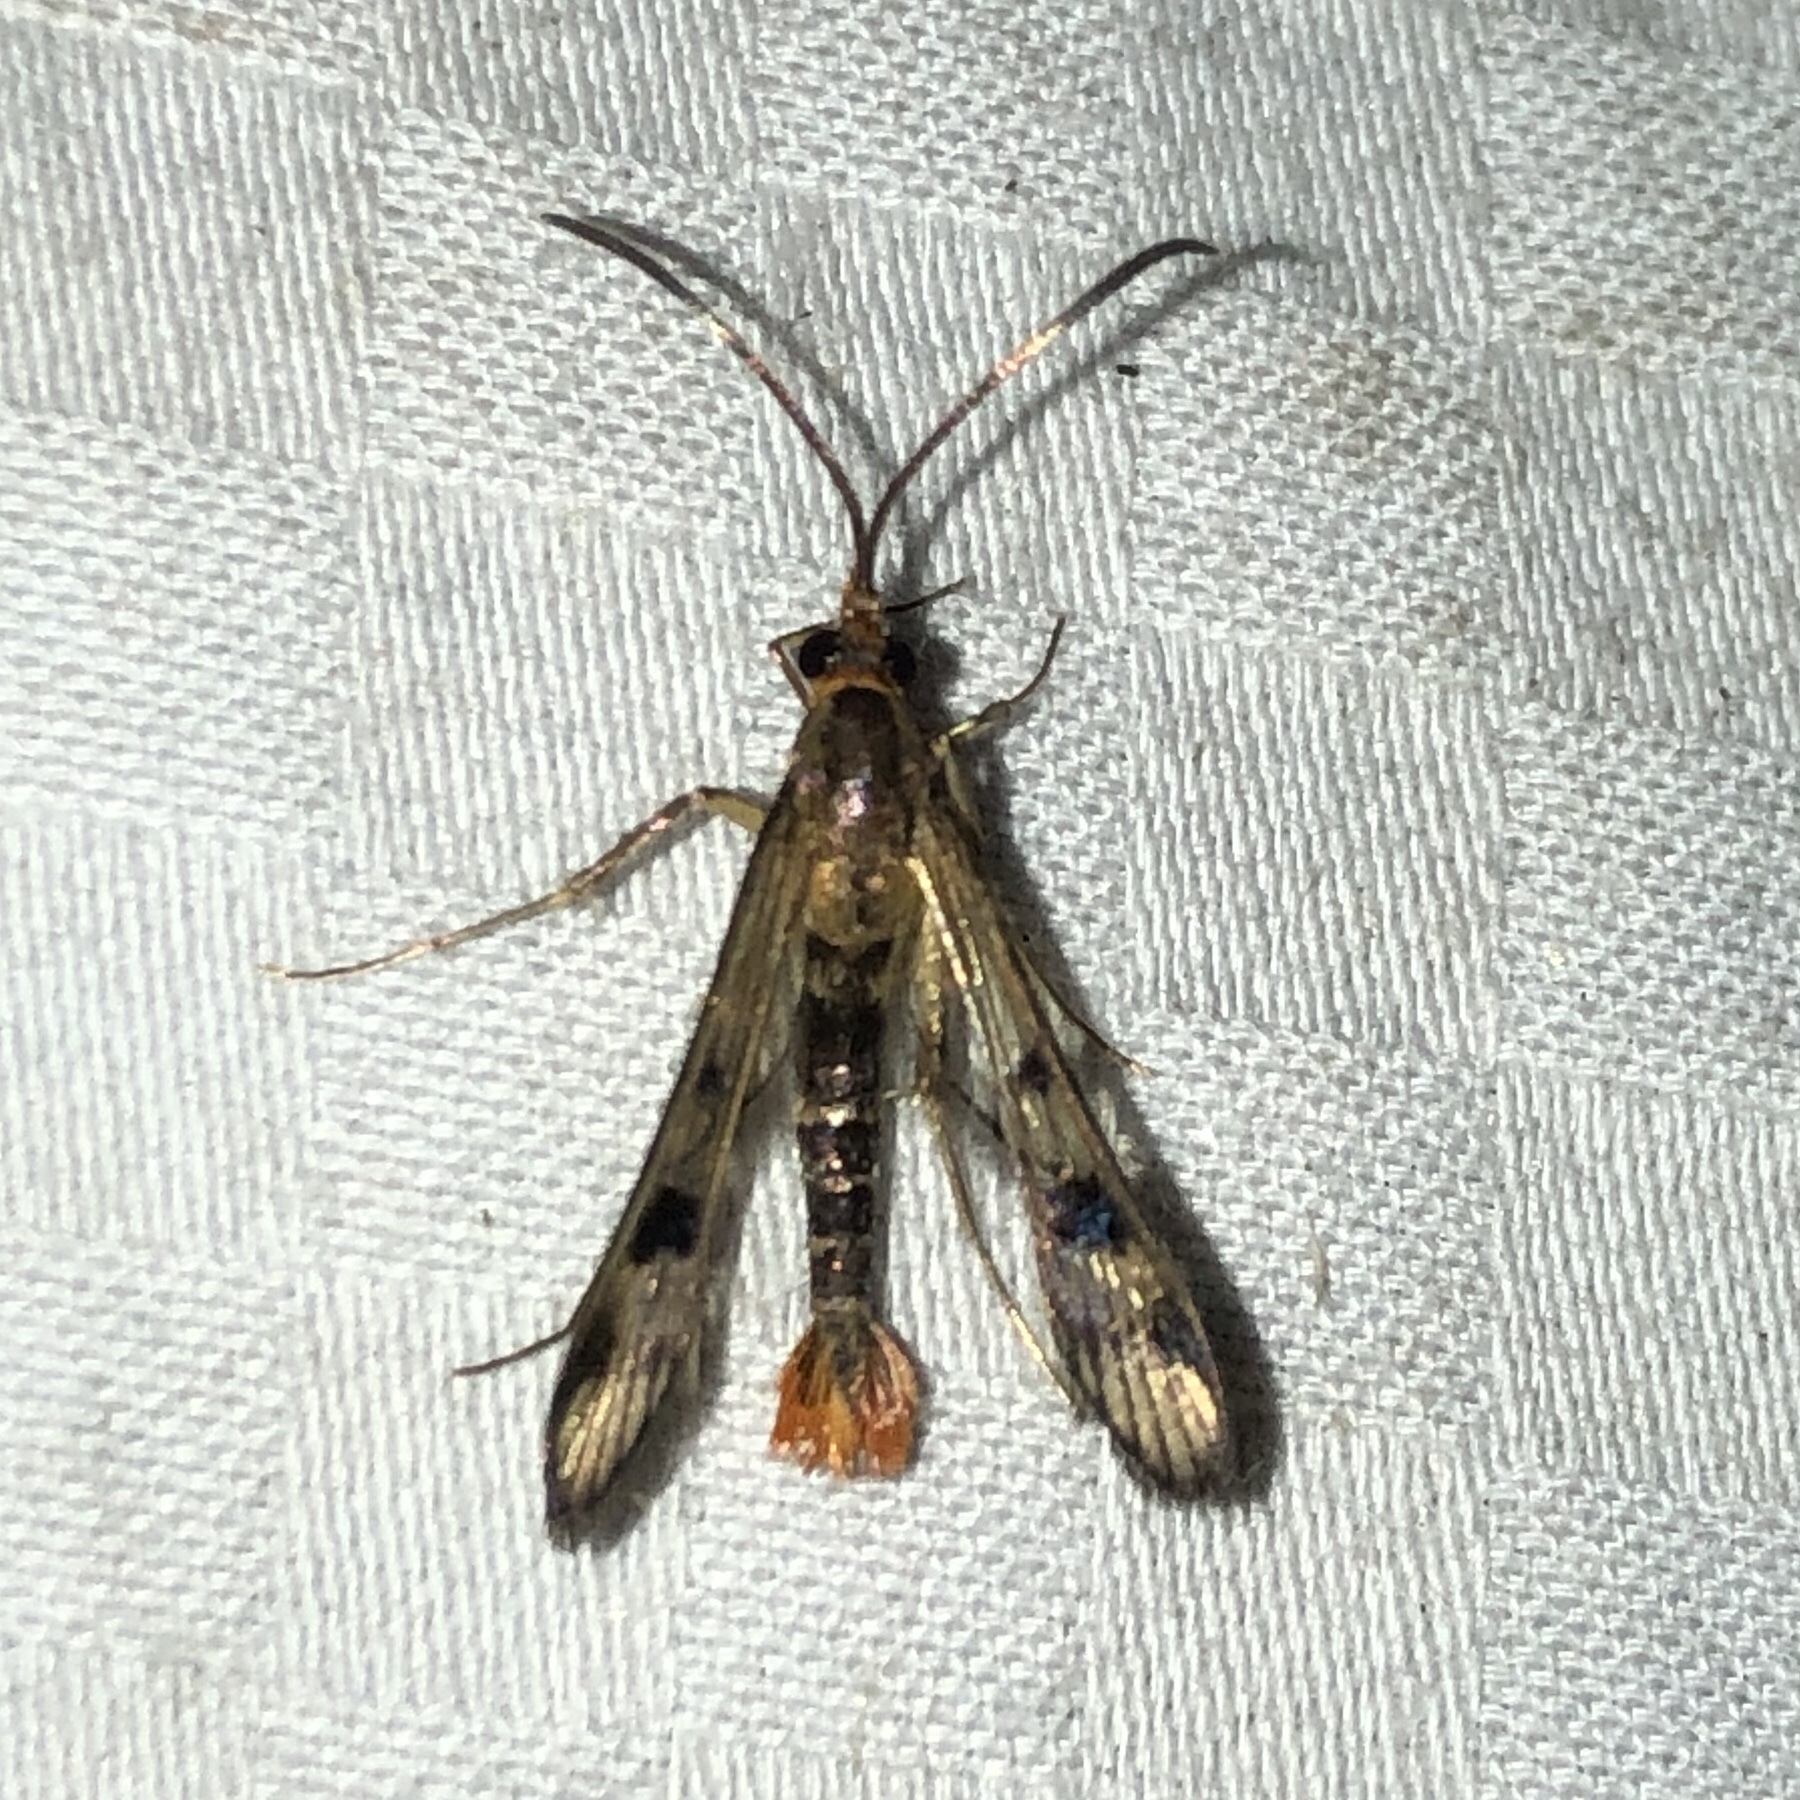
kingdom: Animalia
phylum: Arthropoda
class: Insecta
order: Lepidoptera
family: Sesiidae
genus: Synanthedon
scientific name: Synanthedon acerni
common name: Maple callus borer moth
